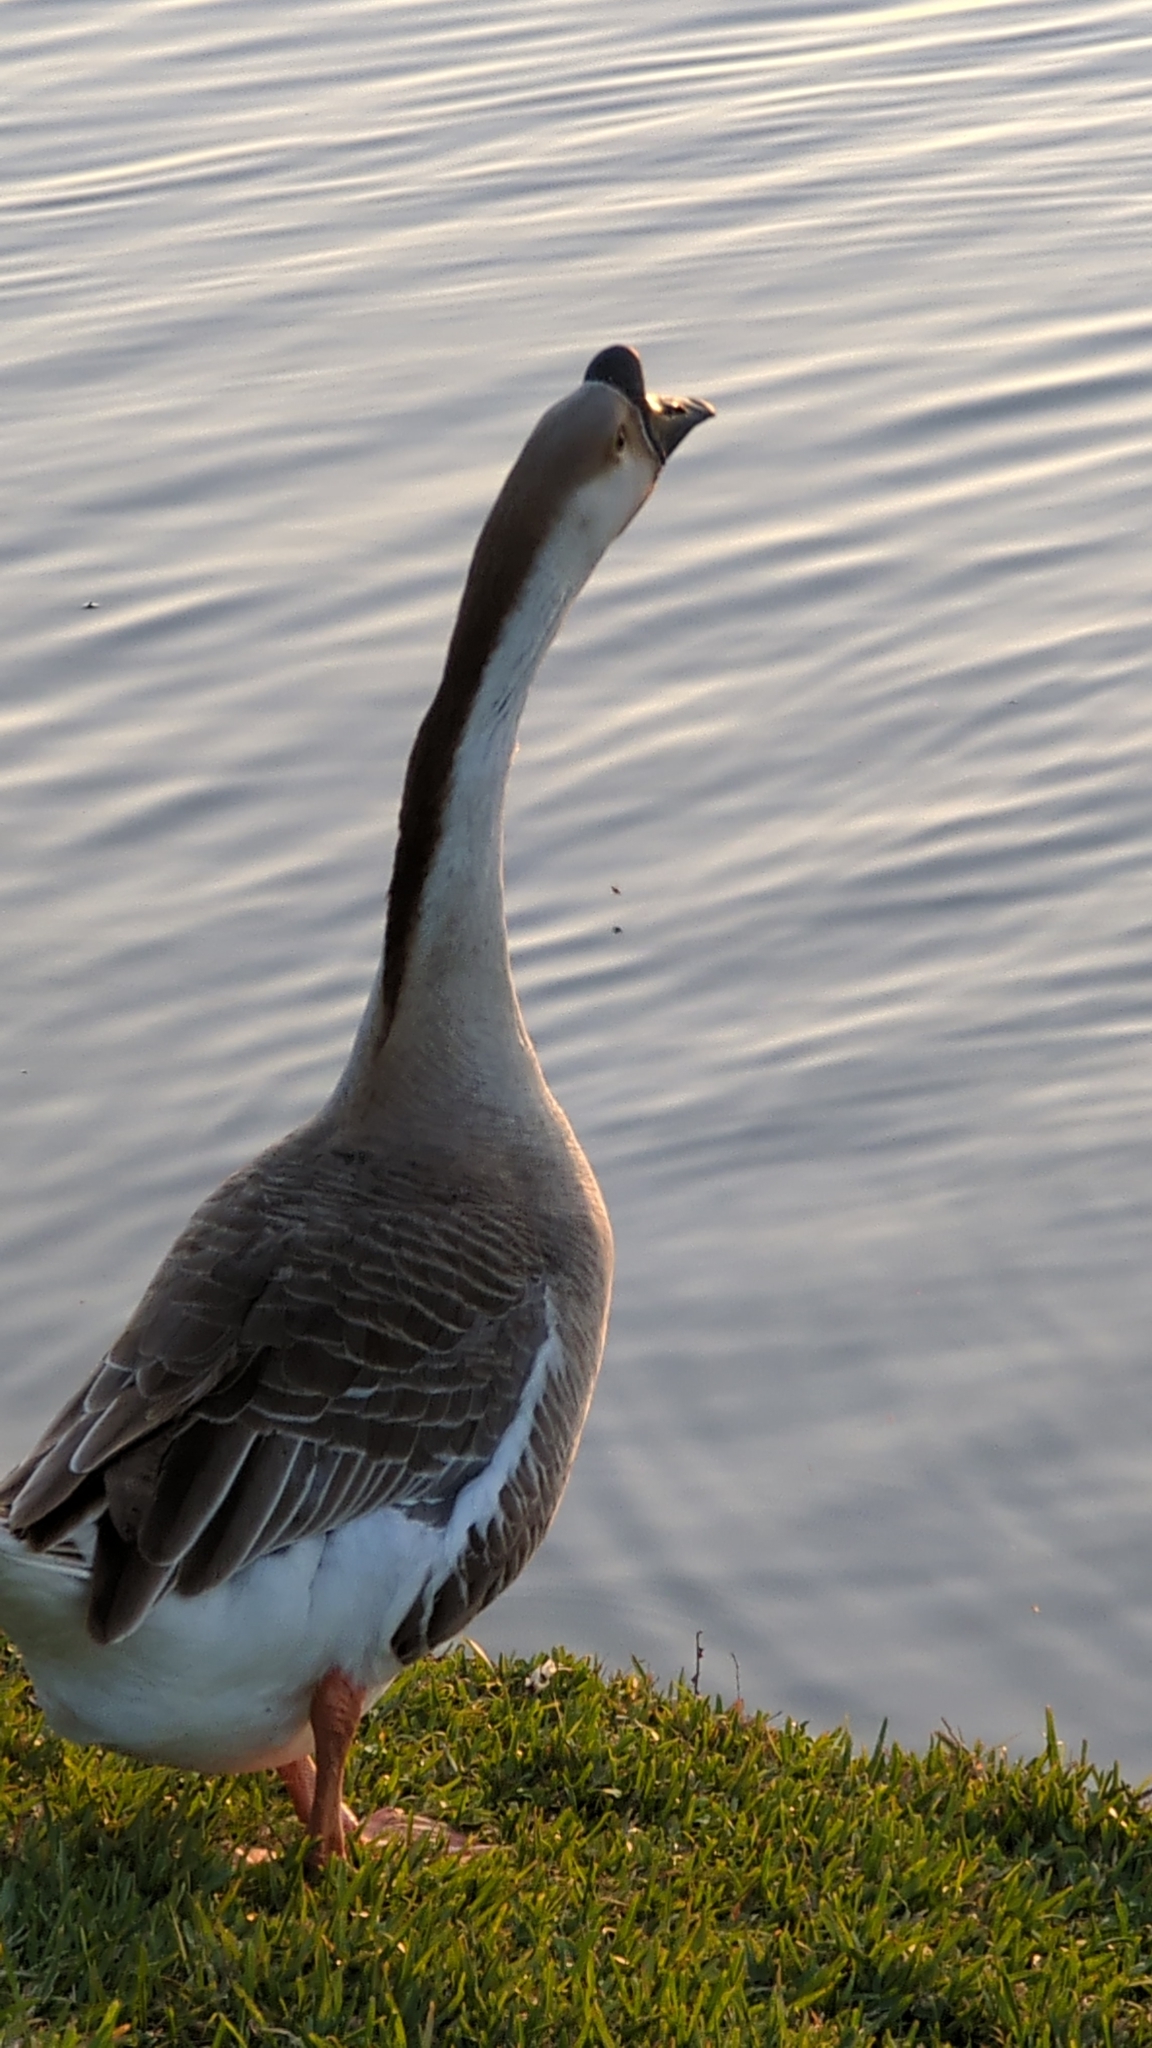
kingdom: Animalia
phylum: Chordata
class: Aves
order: Anseriformes
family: Anatidae
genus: Anser
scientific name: Anser cygnoides
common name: Swan goose
